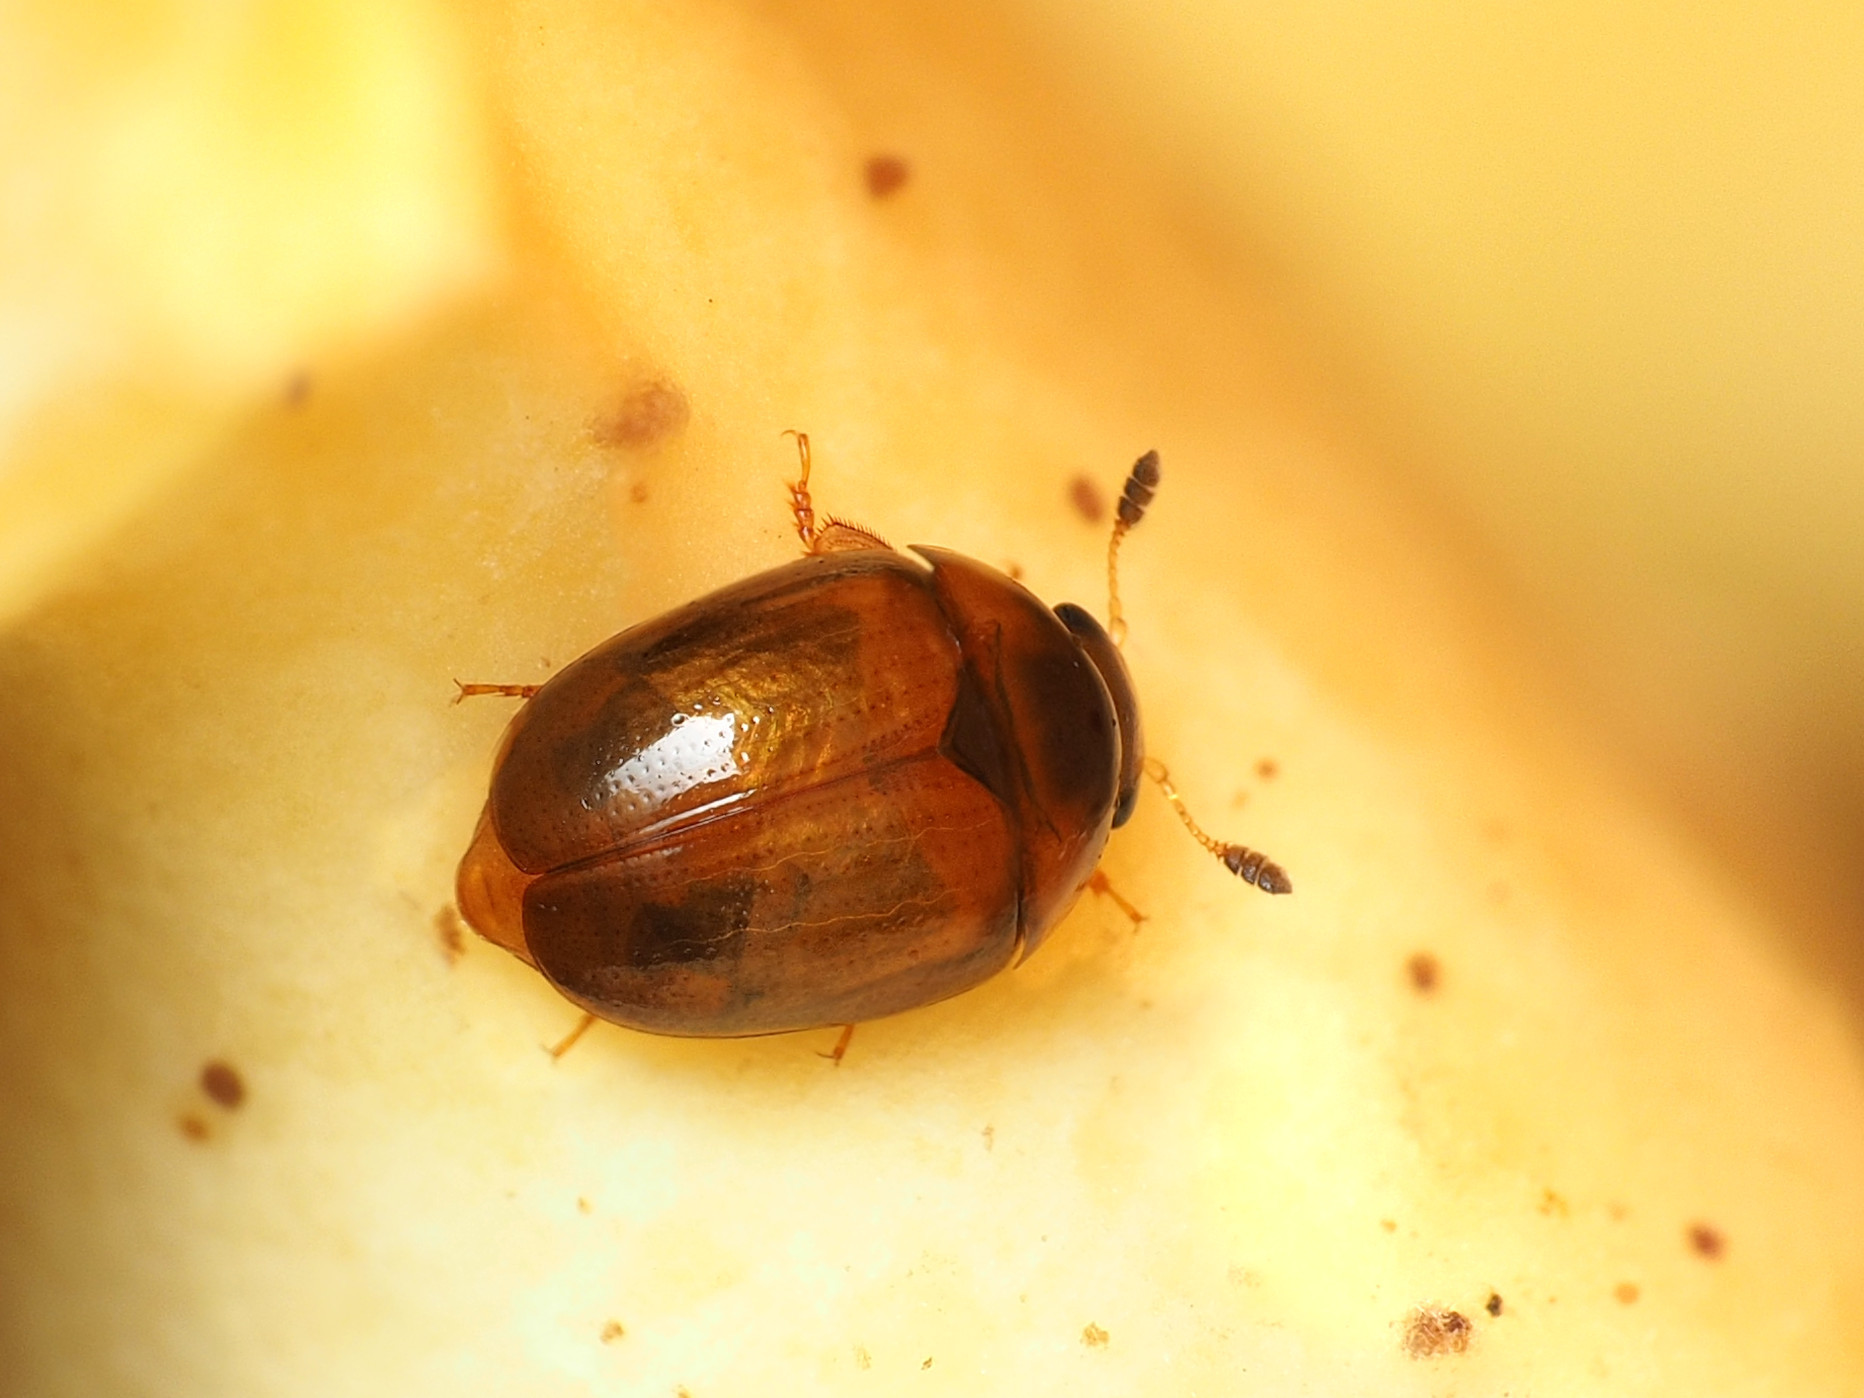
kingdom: Animalia
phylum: Arthropoda
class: Insecta
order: Coleoptera
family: Nitidulidae
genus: Pallodes
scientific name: Pallodes pallidus
